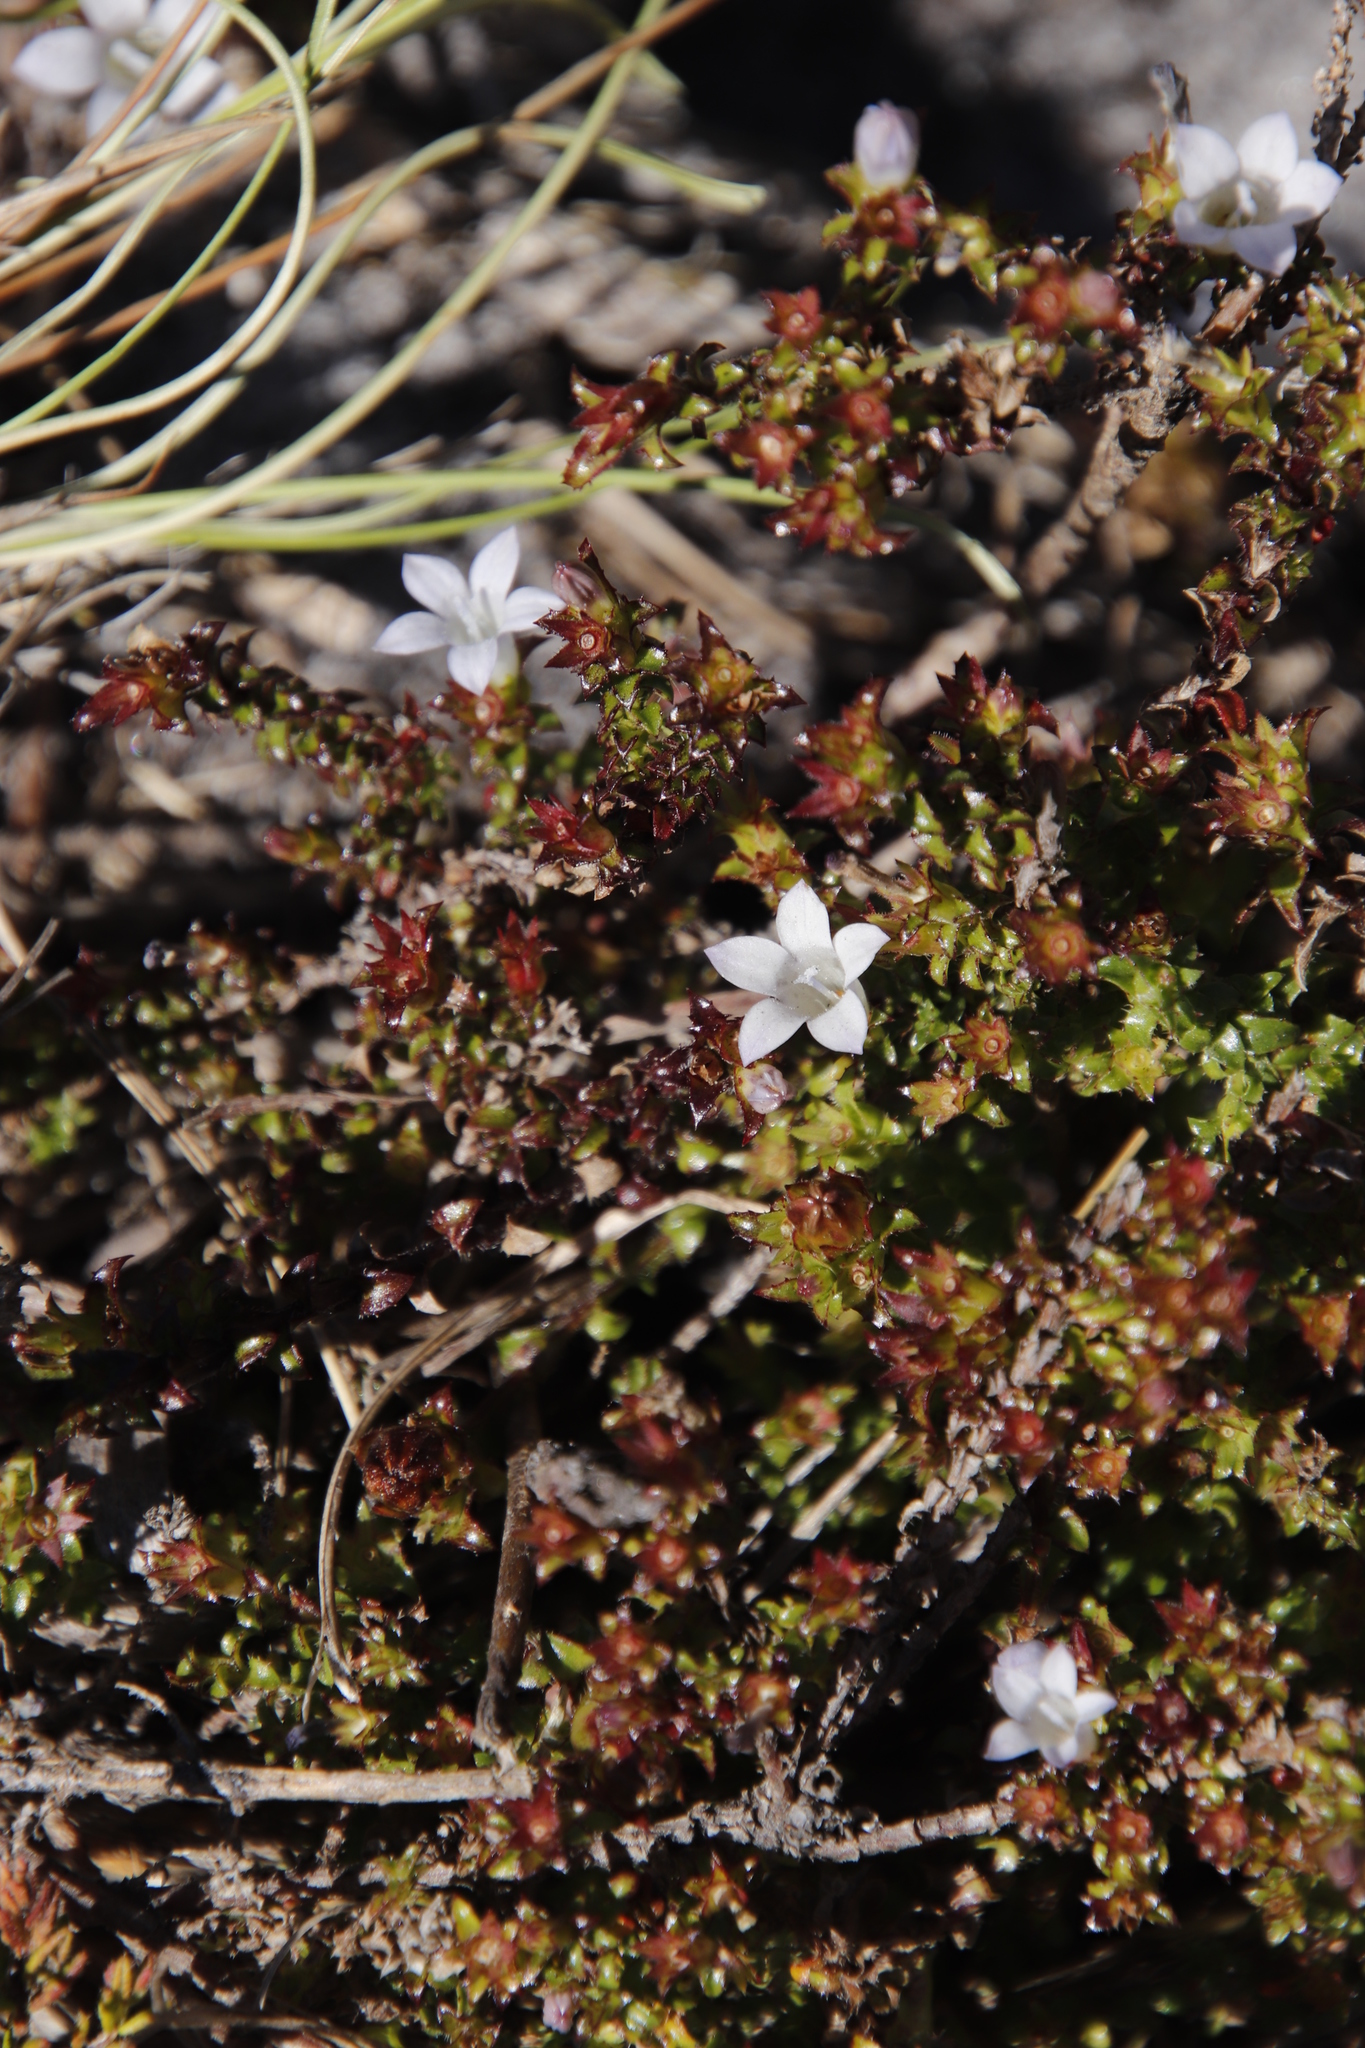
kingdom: Plantae
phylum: Tracheophyta
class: Magnoliopsida
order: Asterales
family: Campanulaceae
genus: Roella
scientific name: Roella decurrens
